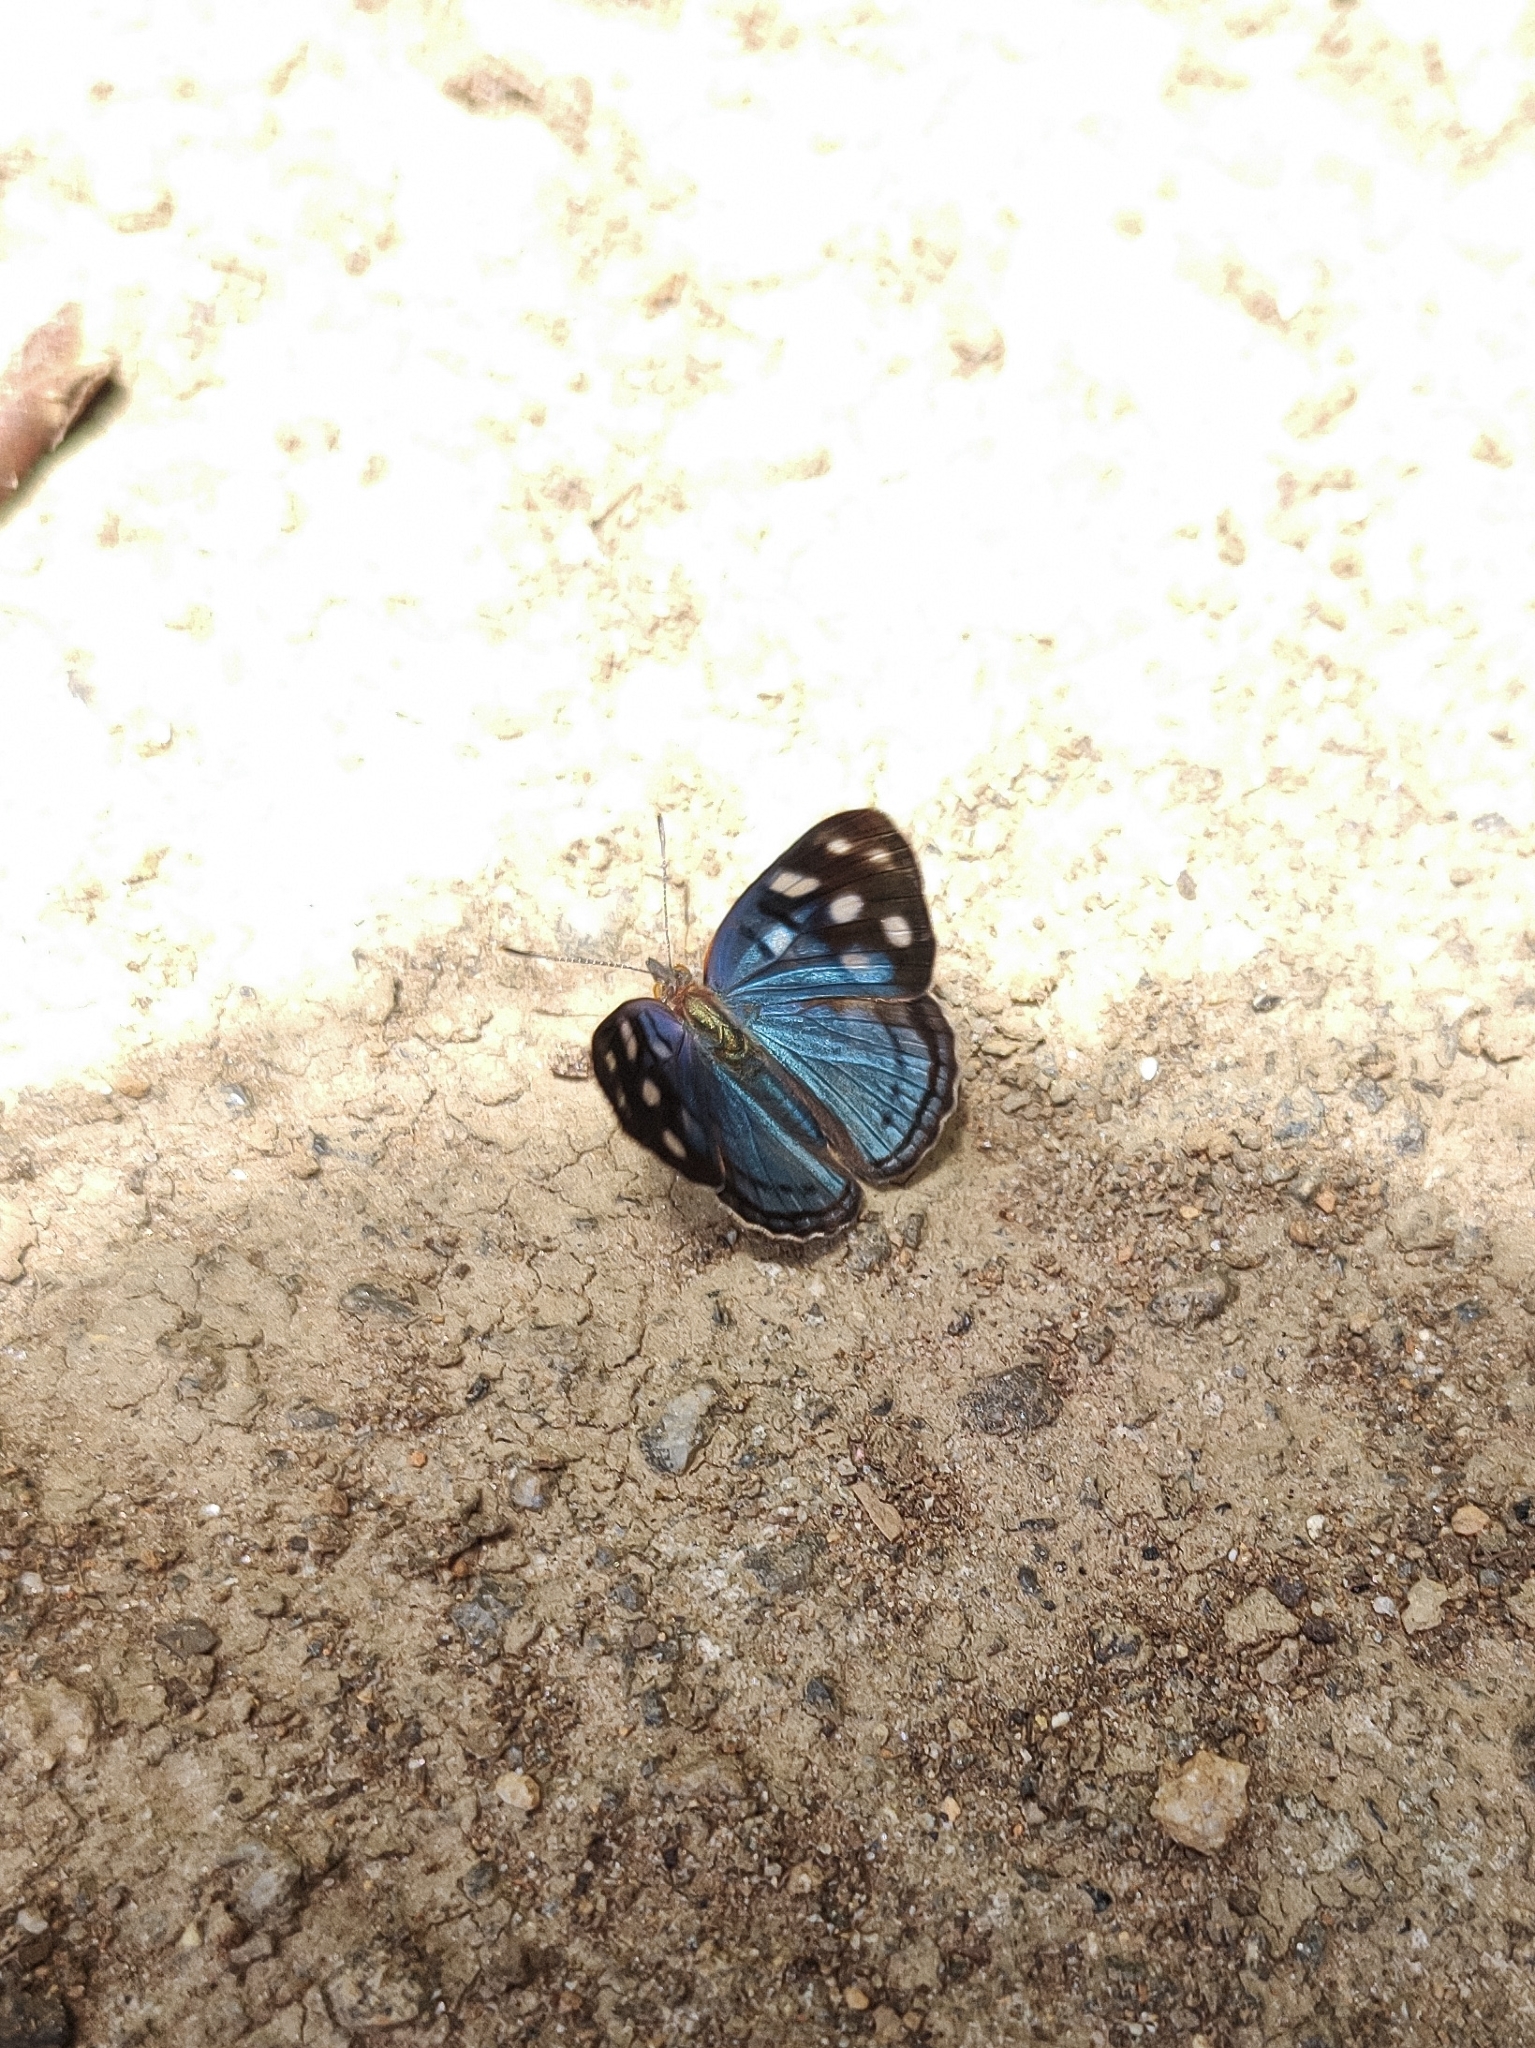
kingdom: Animalia
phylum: Arthropoda
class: Insecta
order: Lepidoptera
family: Nymphalidae
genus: Dynamine
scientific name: Dynamine tithia
